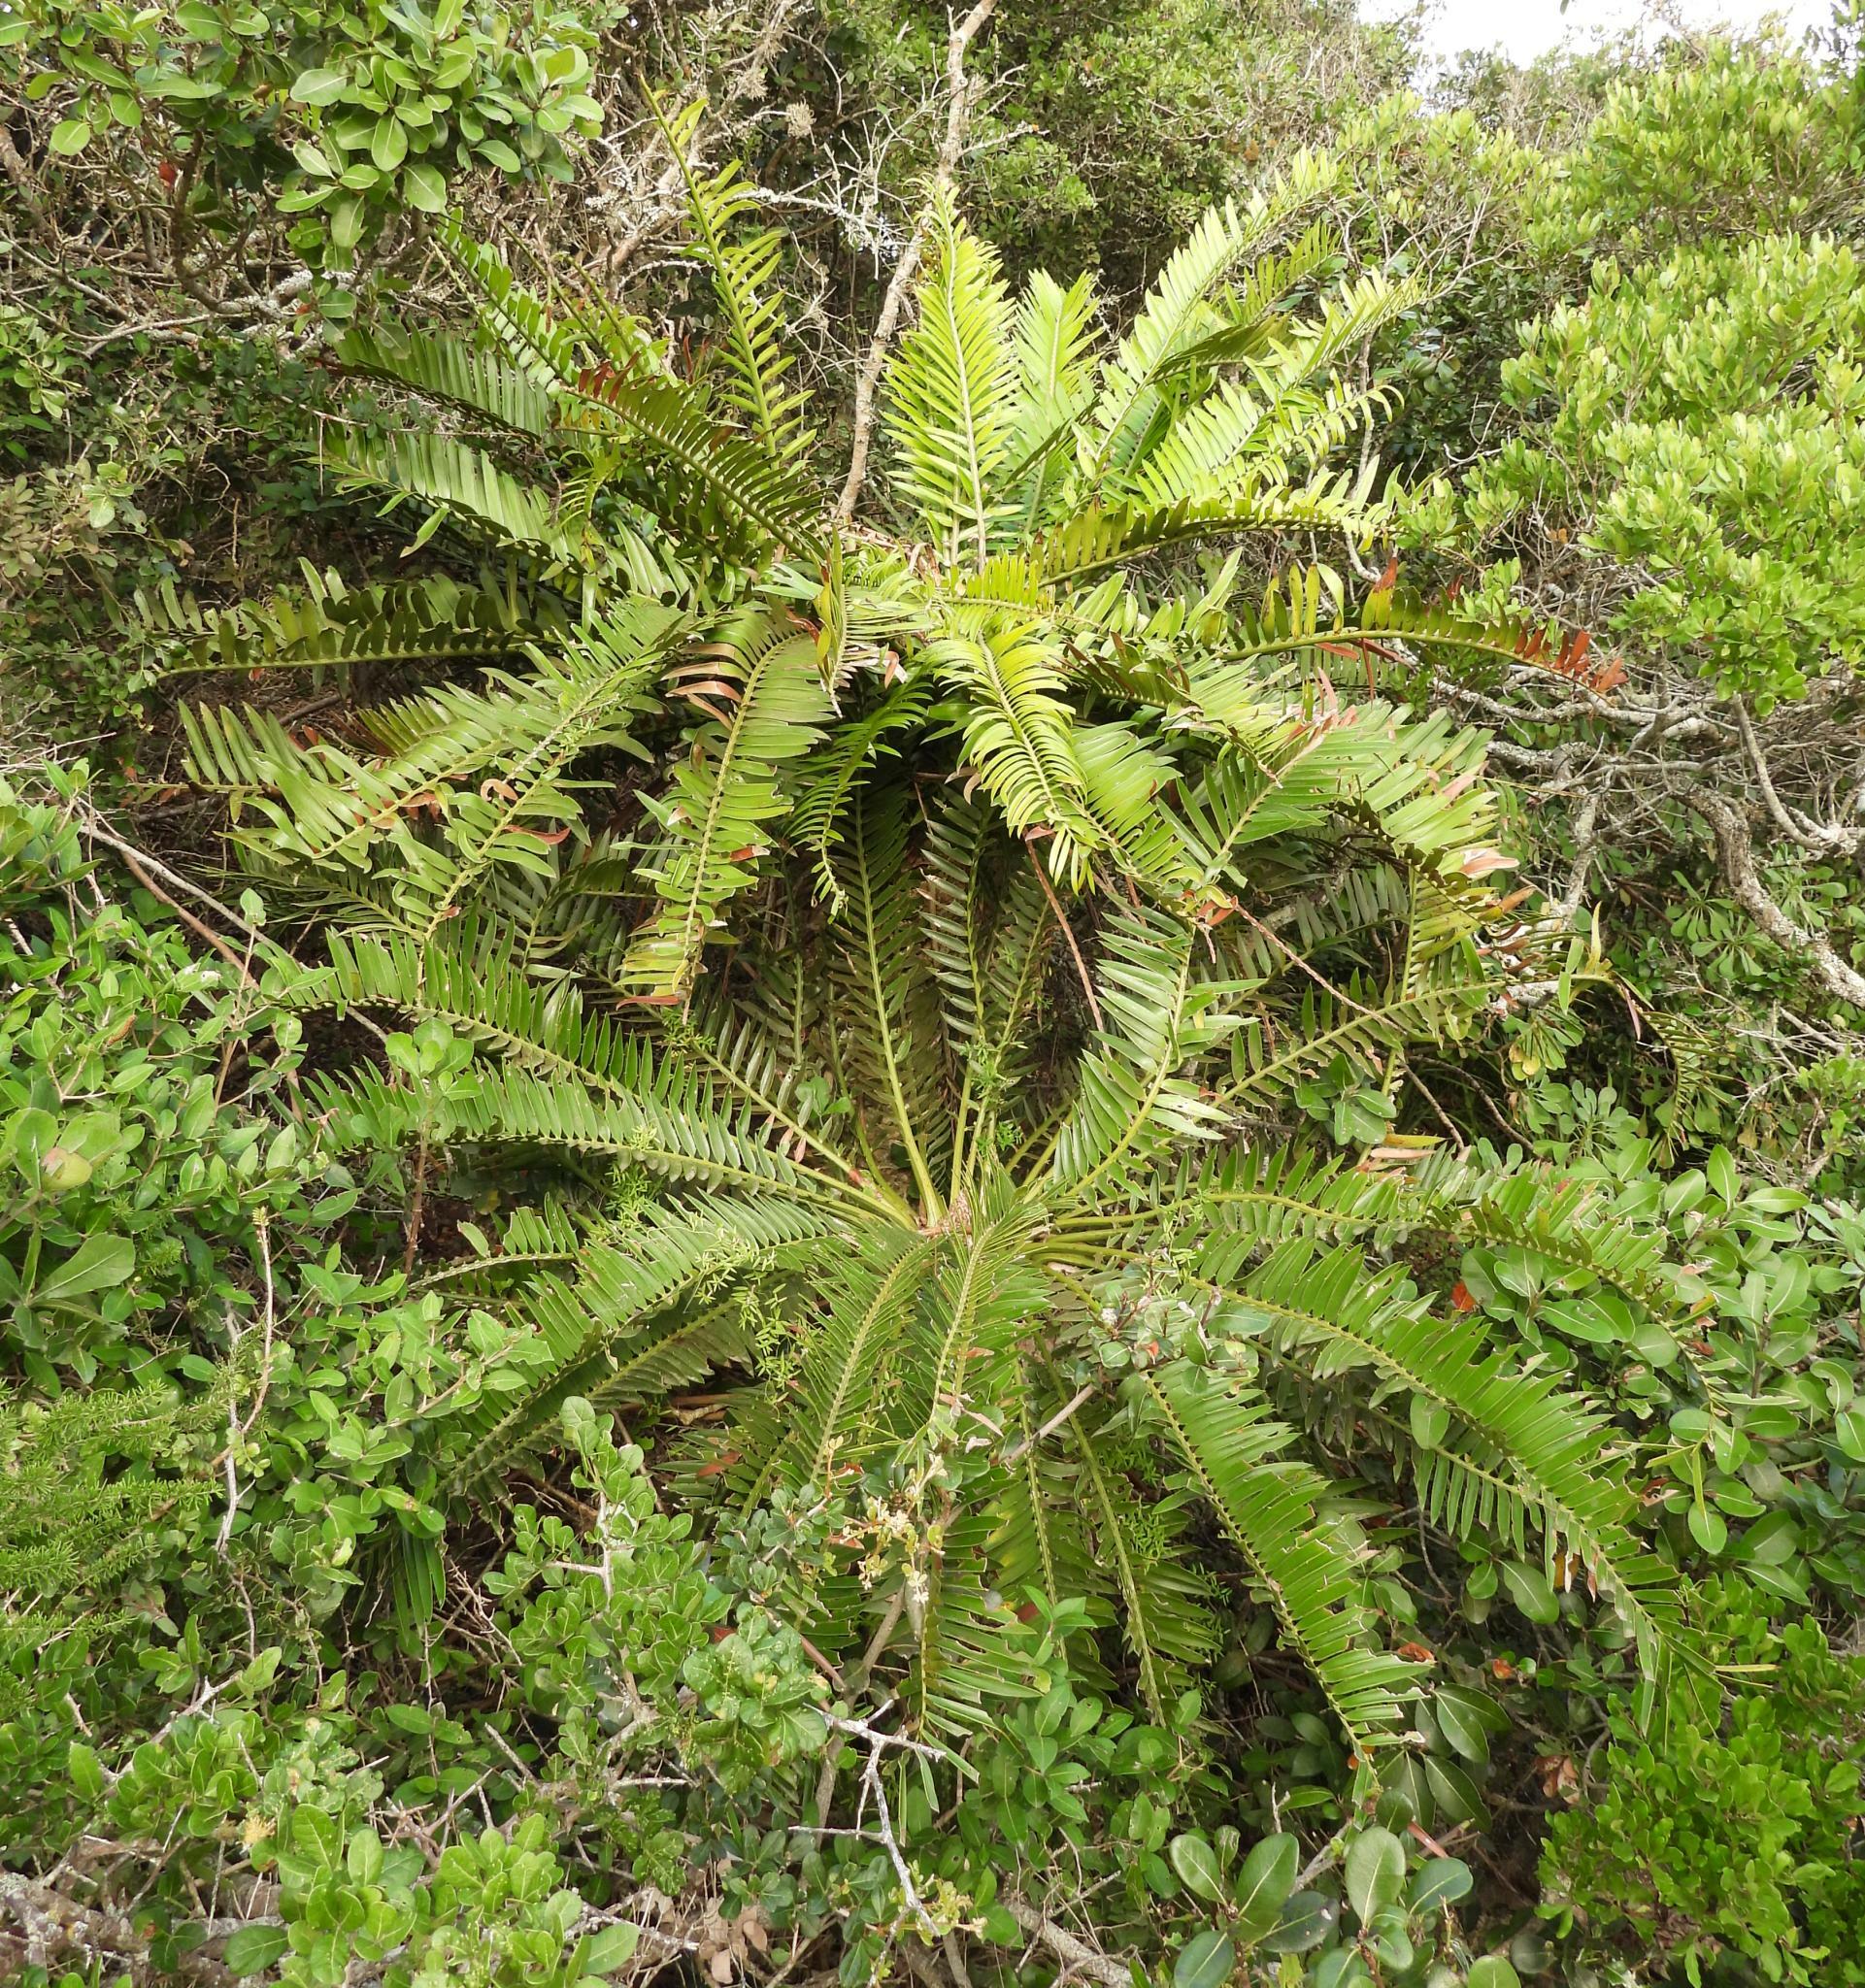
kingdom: Plantae
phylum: Tracheophyta
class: Cycadopsida
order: Cycadales
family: Zamiaceae
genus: Encephalartos
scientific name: Encephalartos altensteinii
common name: Eastern cape cycad
